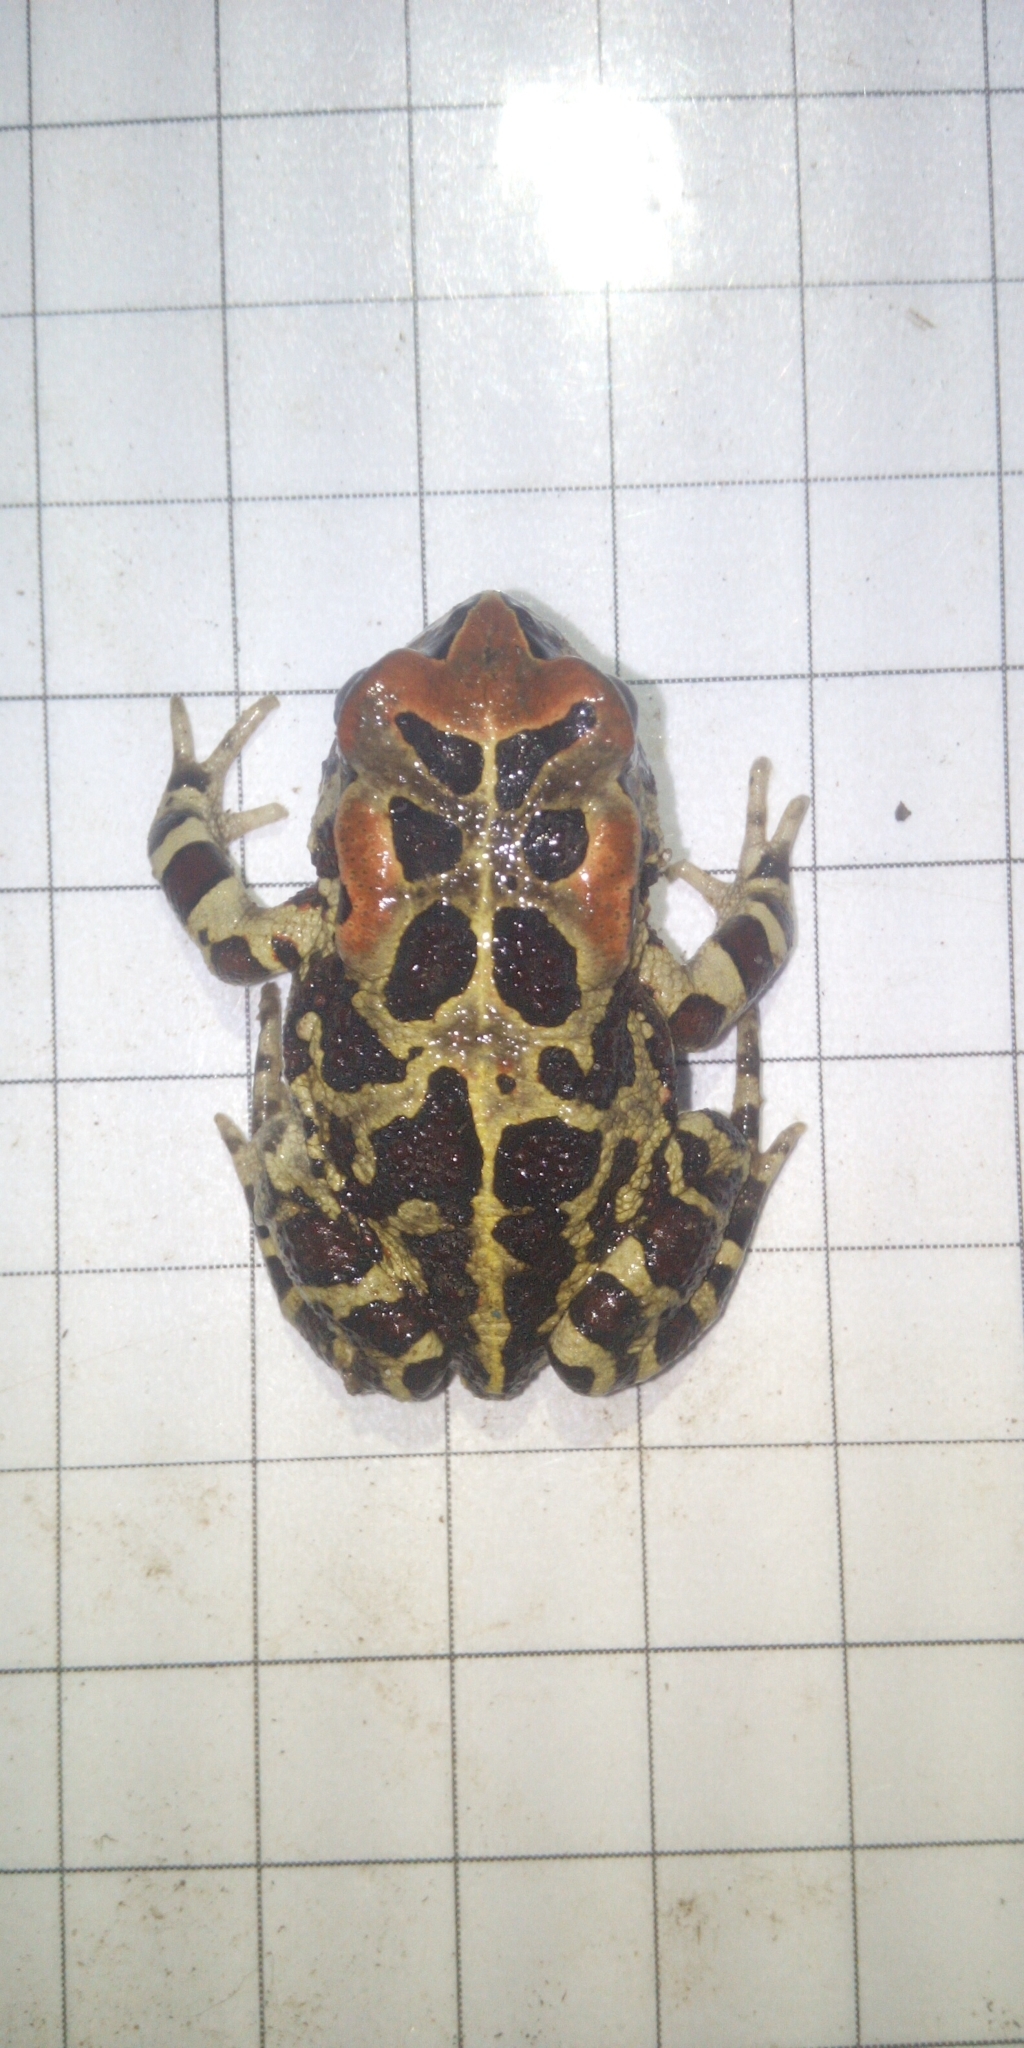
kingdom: Animalia
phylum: Chordata
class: Amphibia
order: Anura
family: Bufonidae
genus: Sclerophrys
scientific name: Sclerophrys pantherina
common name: Panther toad
